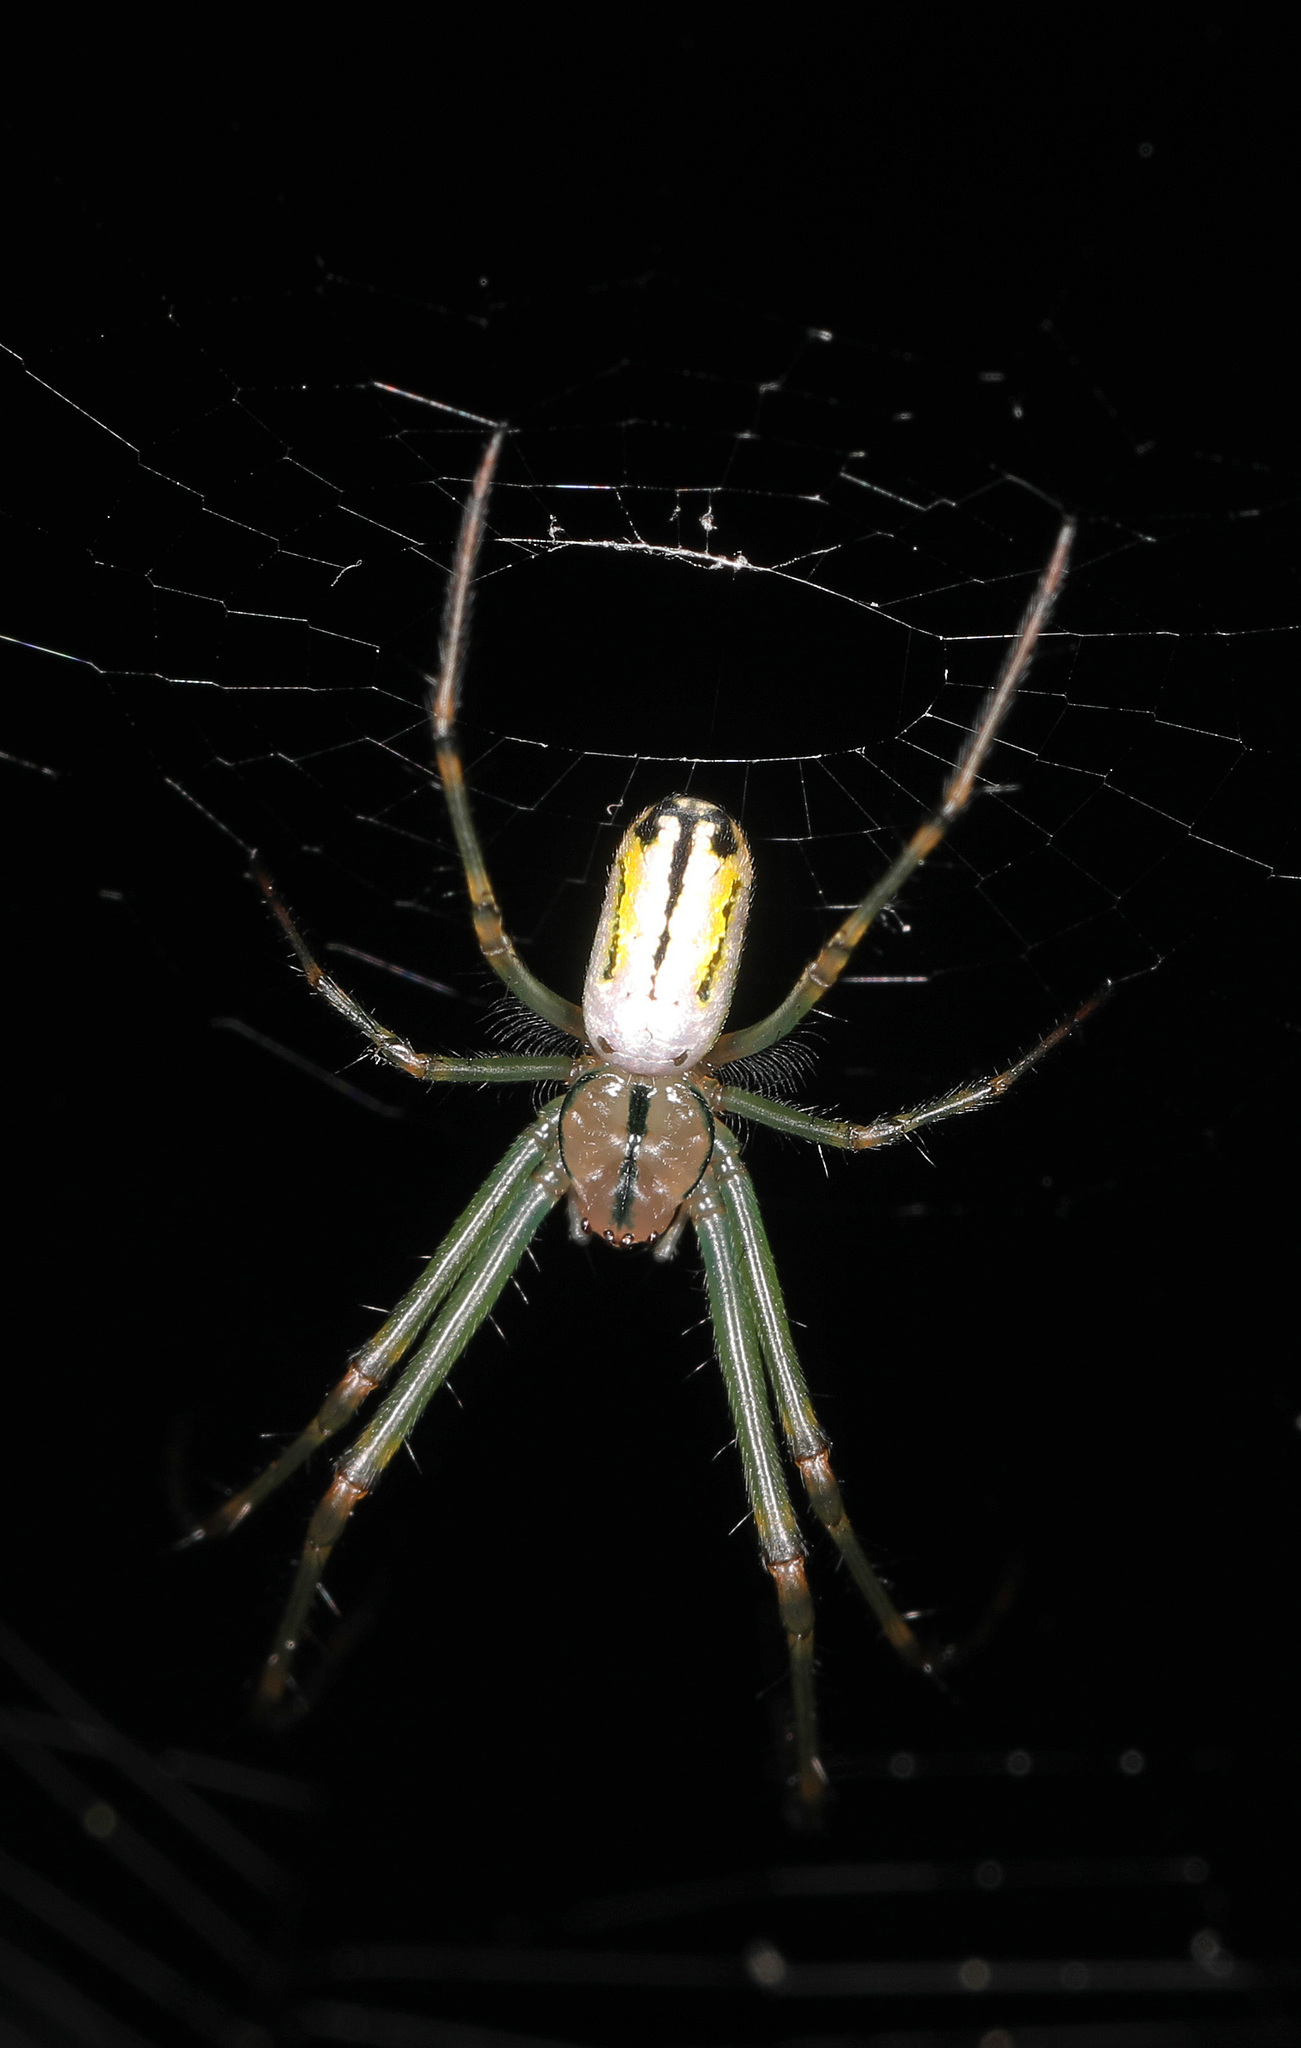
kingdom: Animalia
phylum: Arthropoda
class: Arachnida
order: Araneae
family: Tetragnathidae
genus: Leucauge
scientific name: Leucauge venusta
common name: Longjawed orb weavers
